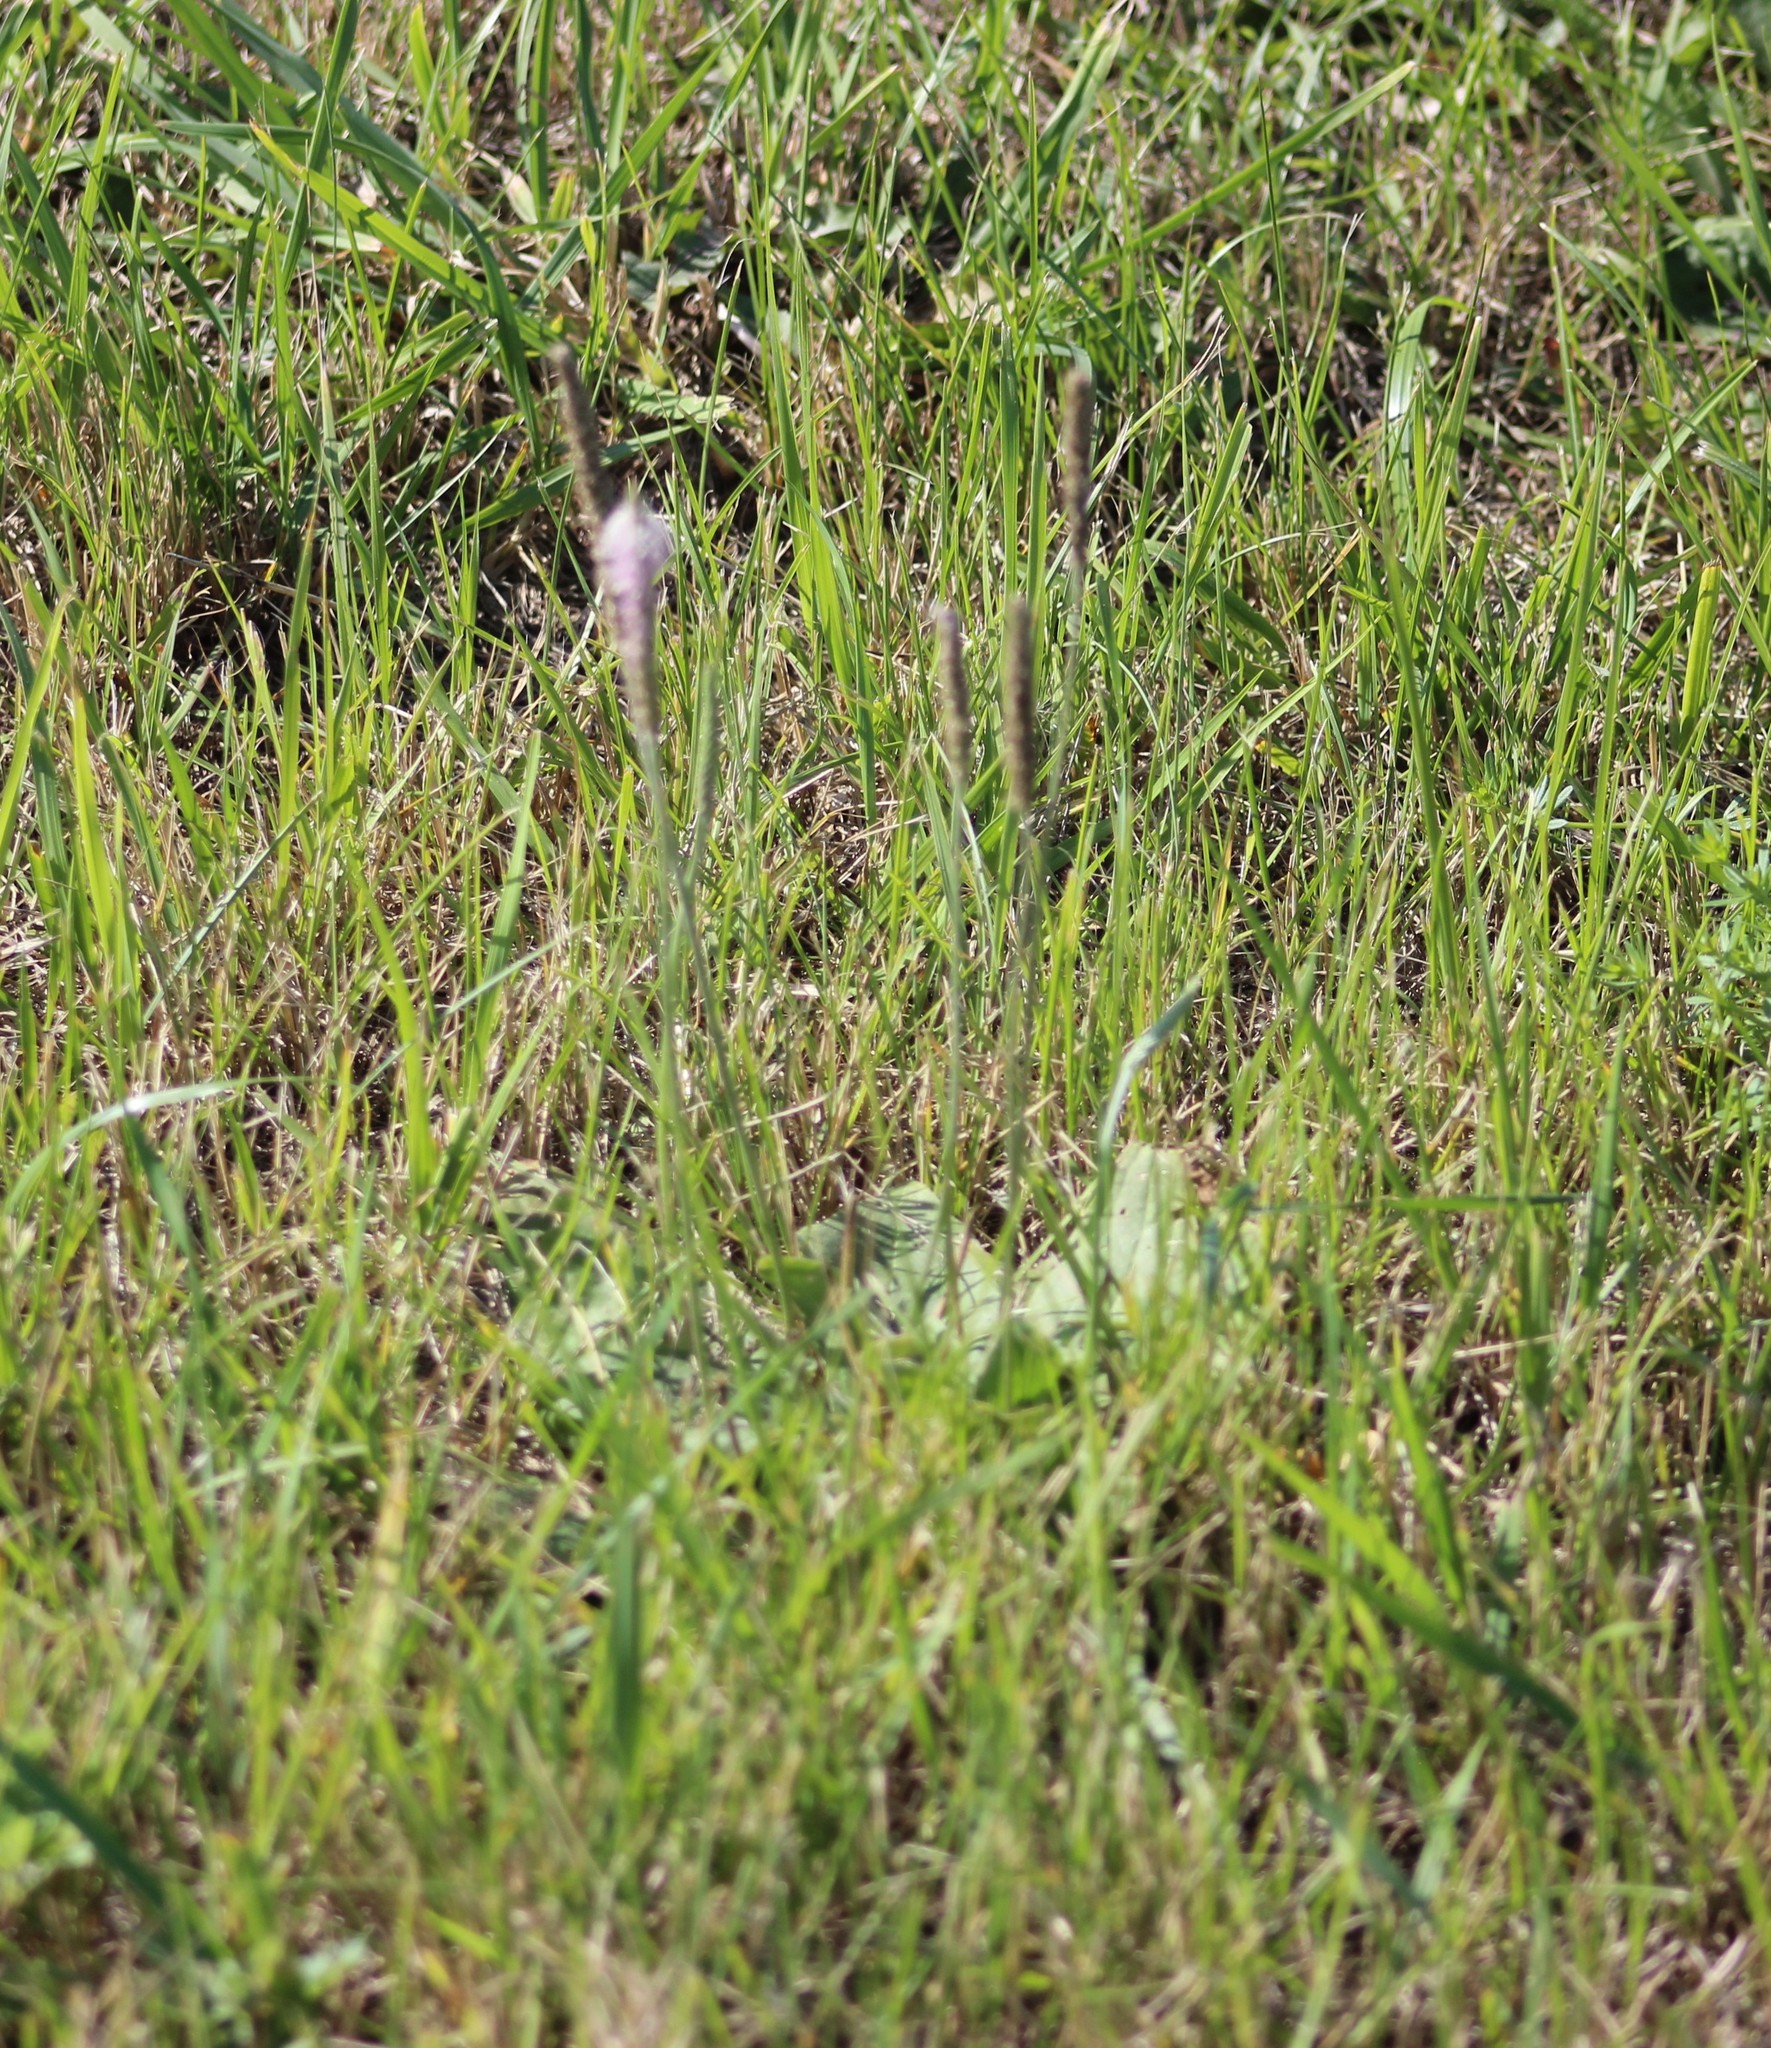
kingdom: Plantae
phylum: Tracheophyta
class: Magnoliopsida
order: Lamiales
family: Plantaginaceae
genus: Plantago
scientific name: Plantago media
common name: Hoary plantain
